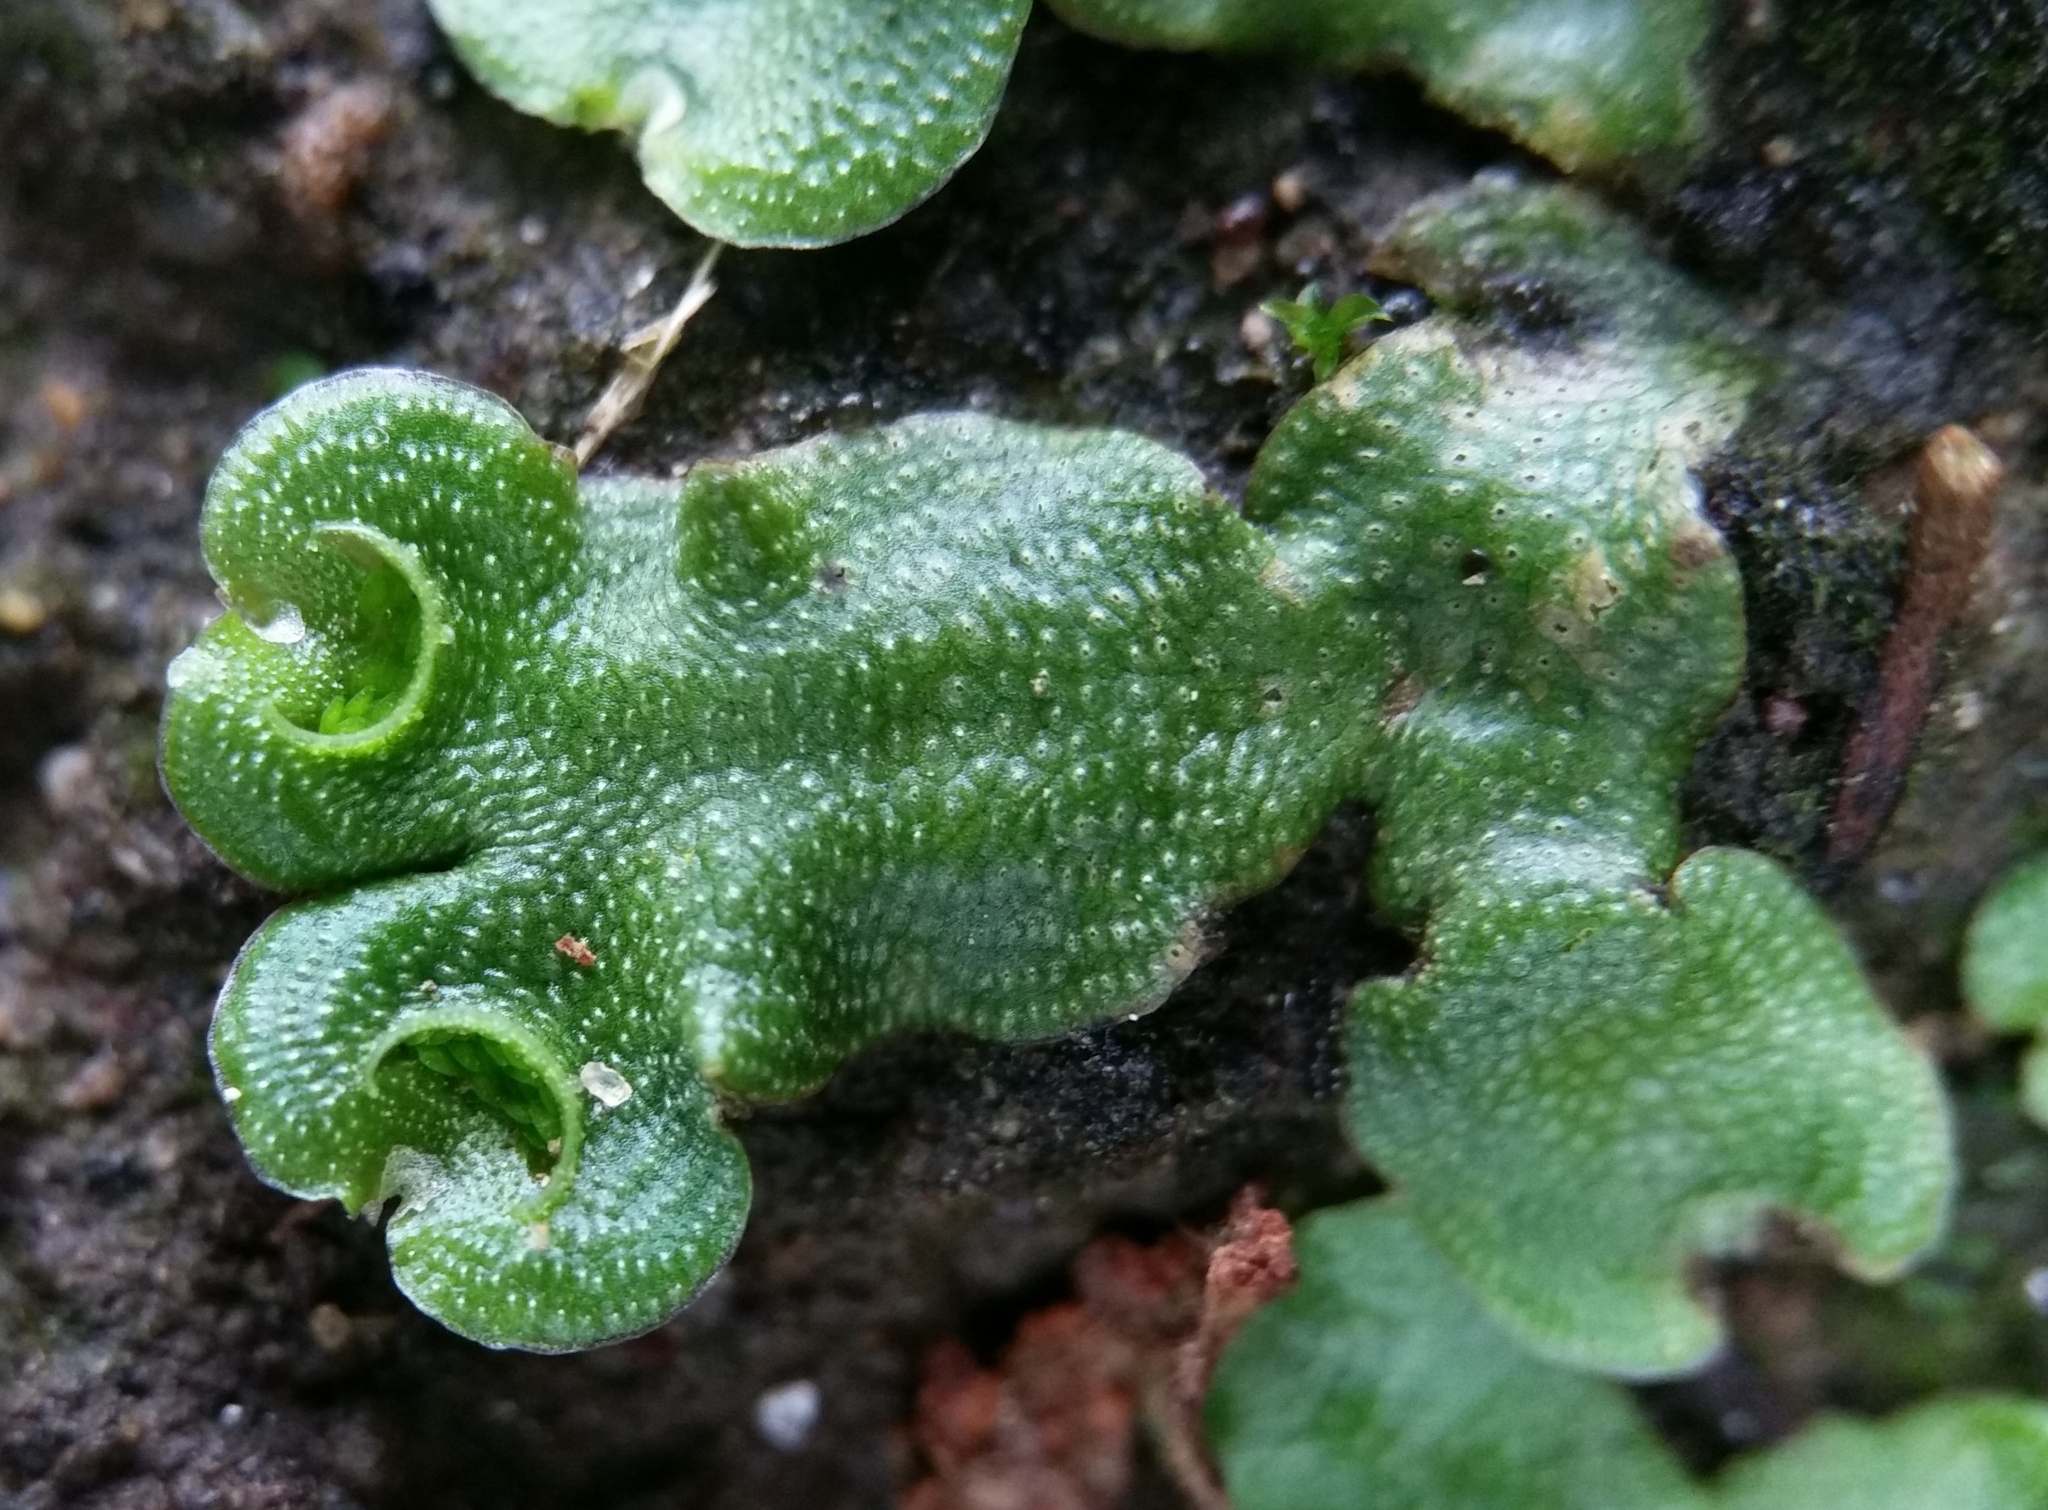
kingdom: Plantae
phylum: Marchantiophyta
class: Marchantiopsida
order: Lunulariales
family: Lunulariaceae
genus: Lunularia
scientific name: Lunularia cruciata
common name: Crescent-cup liverwort
